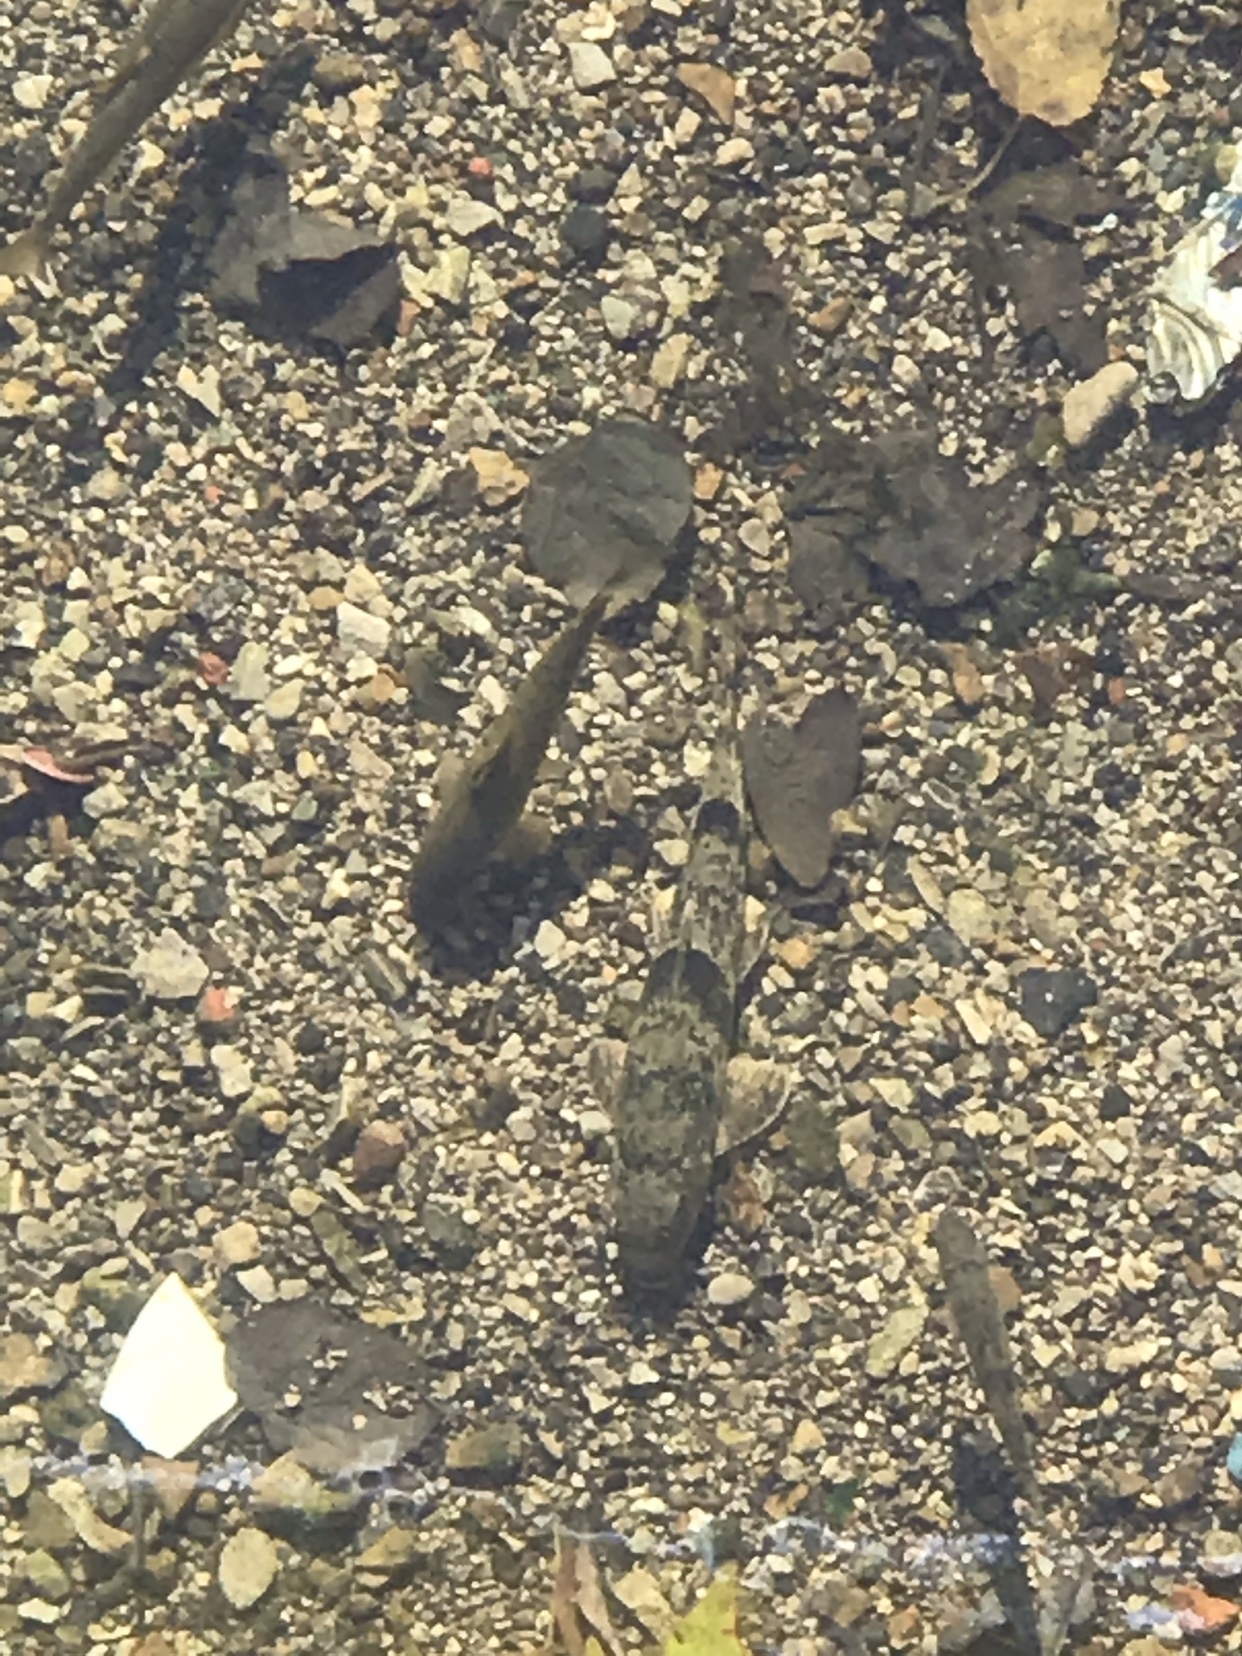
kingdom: Animalia
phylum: Chordata
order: Cypriniformes
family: Catostomidae
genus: Hypentelium
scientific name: Hypentelium nigricans
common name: Northern hog sucker
